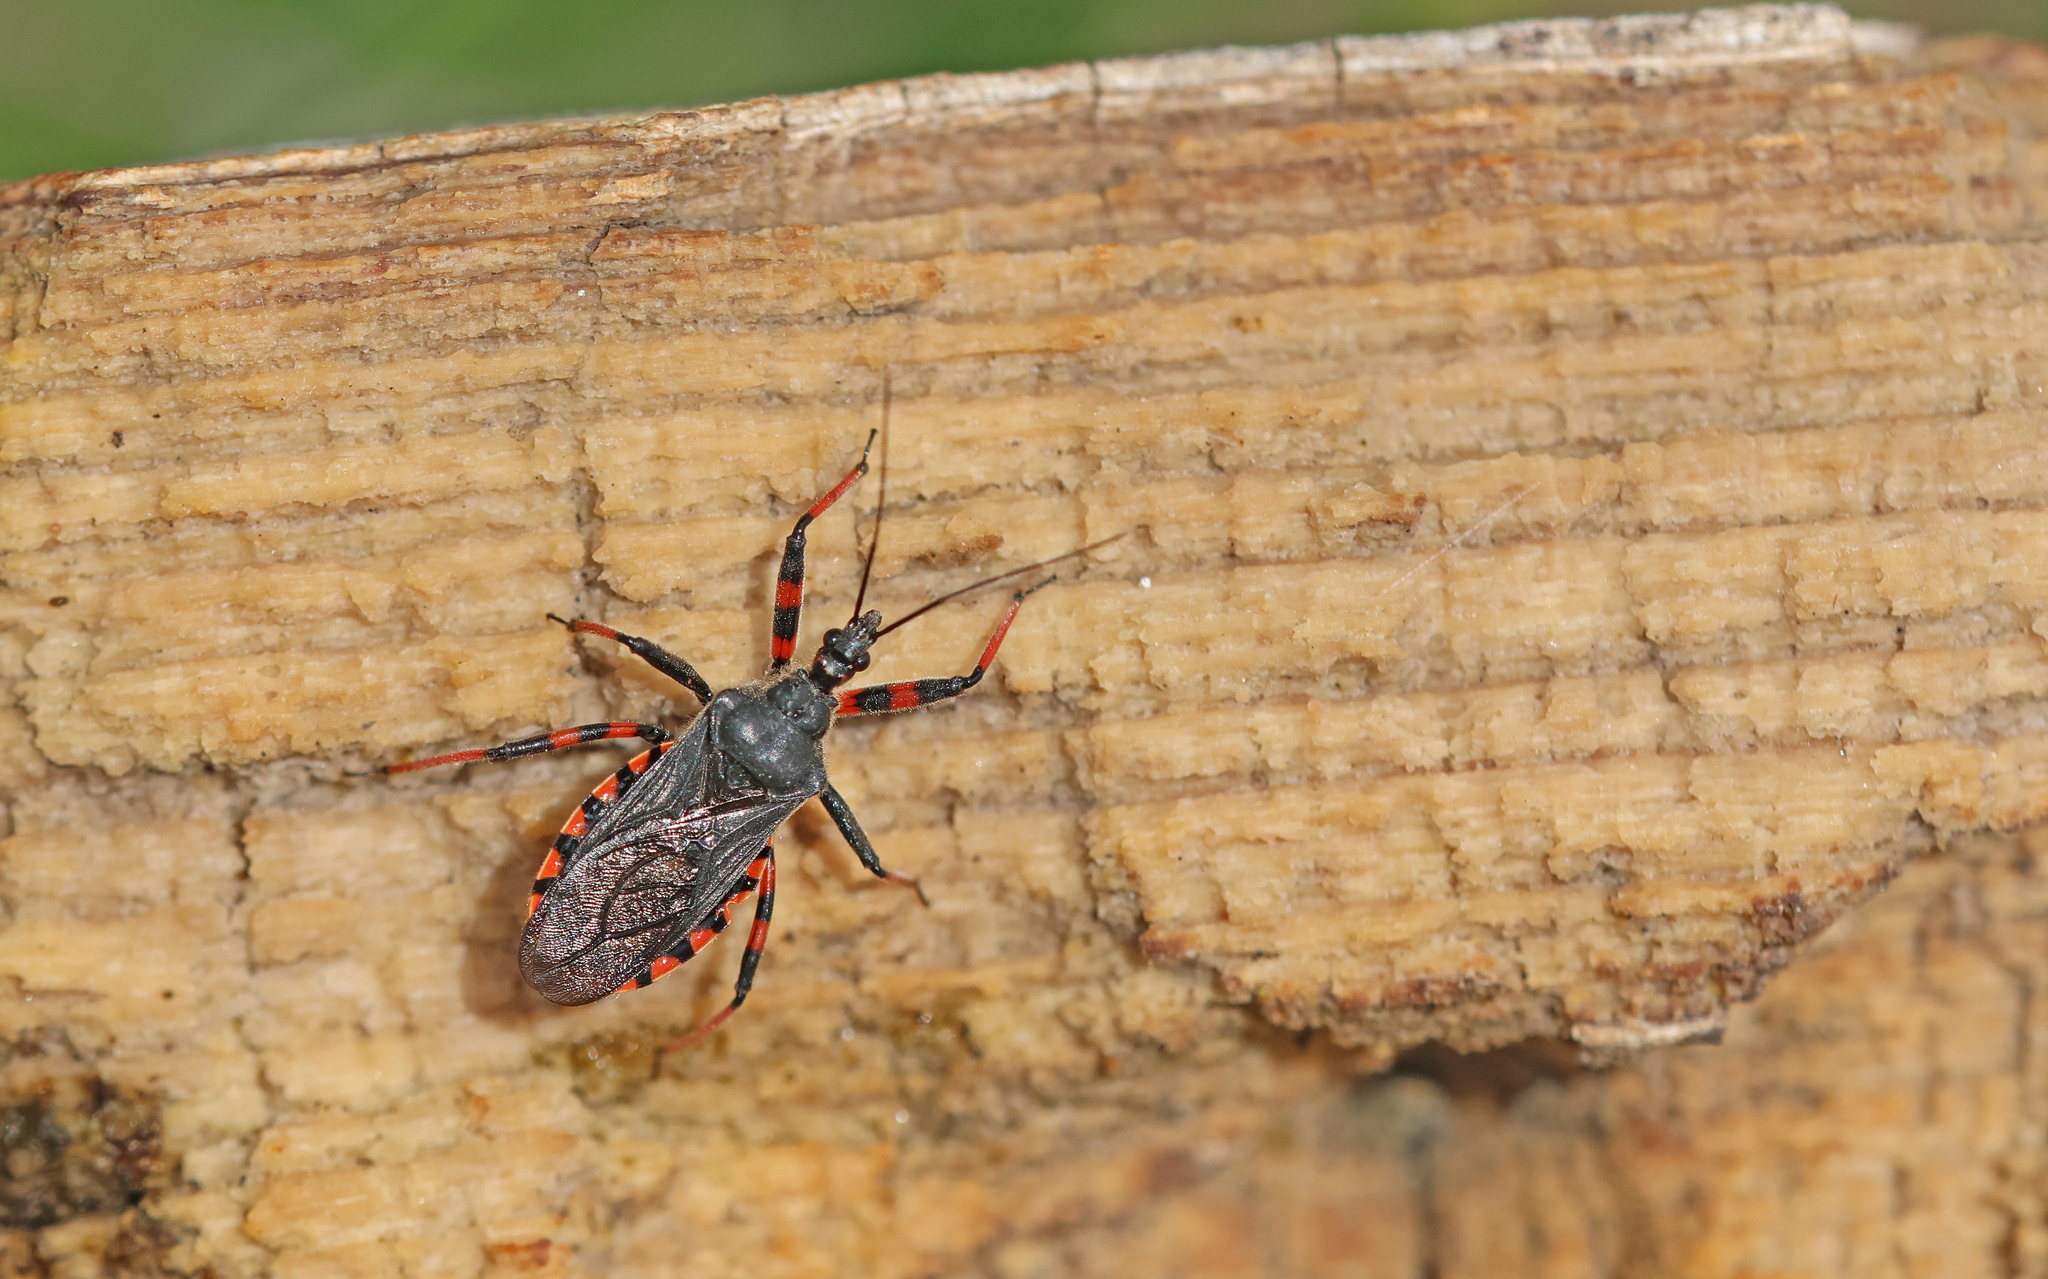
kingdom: Animalia
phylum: Arthropoda
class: Insecta
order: Hemiptera
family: Reduviidae
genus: Rhynocoris
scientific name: Rhynocoris annulatus
